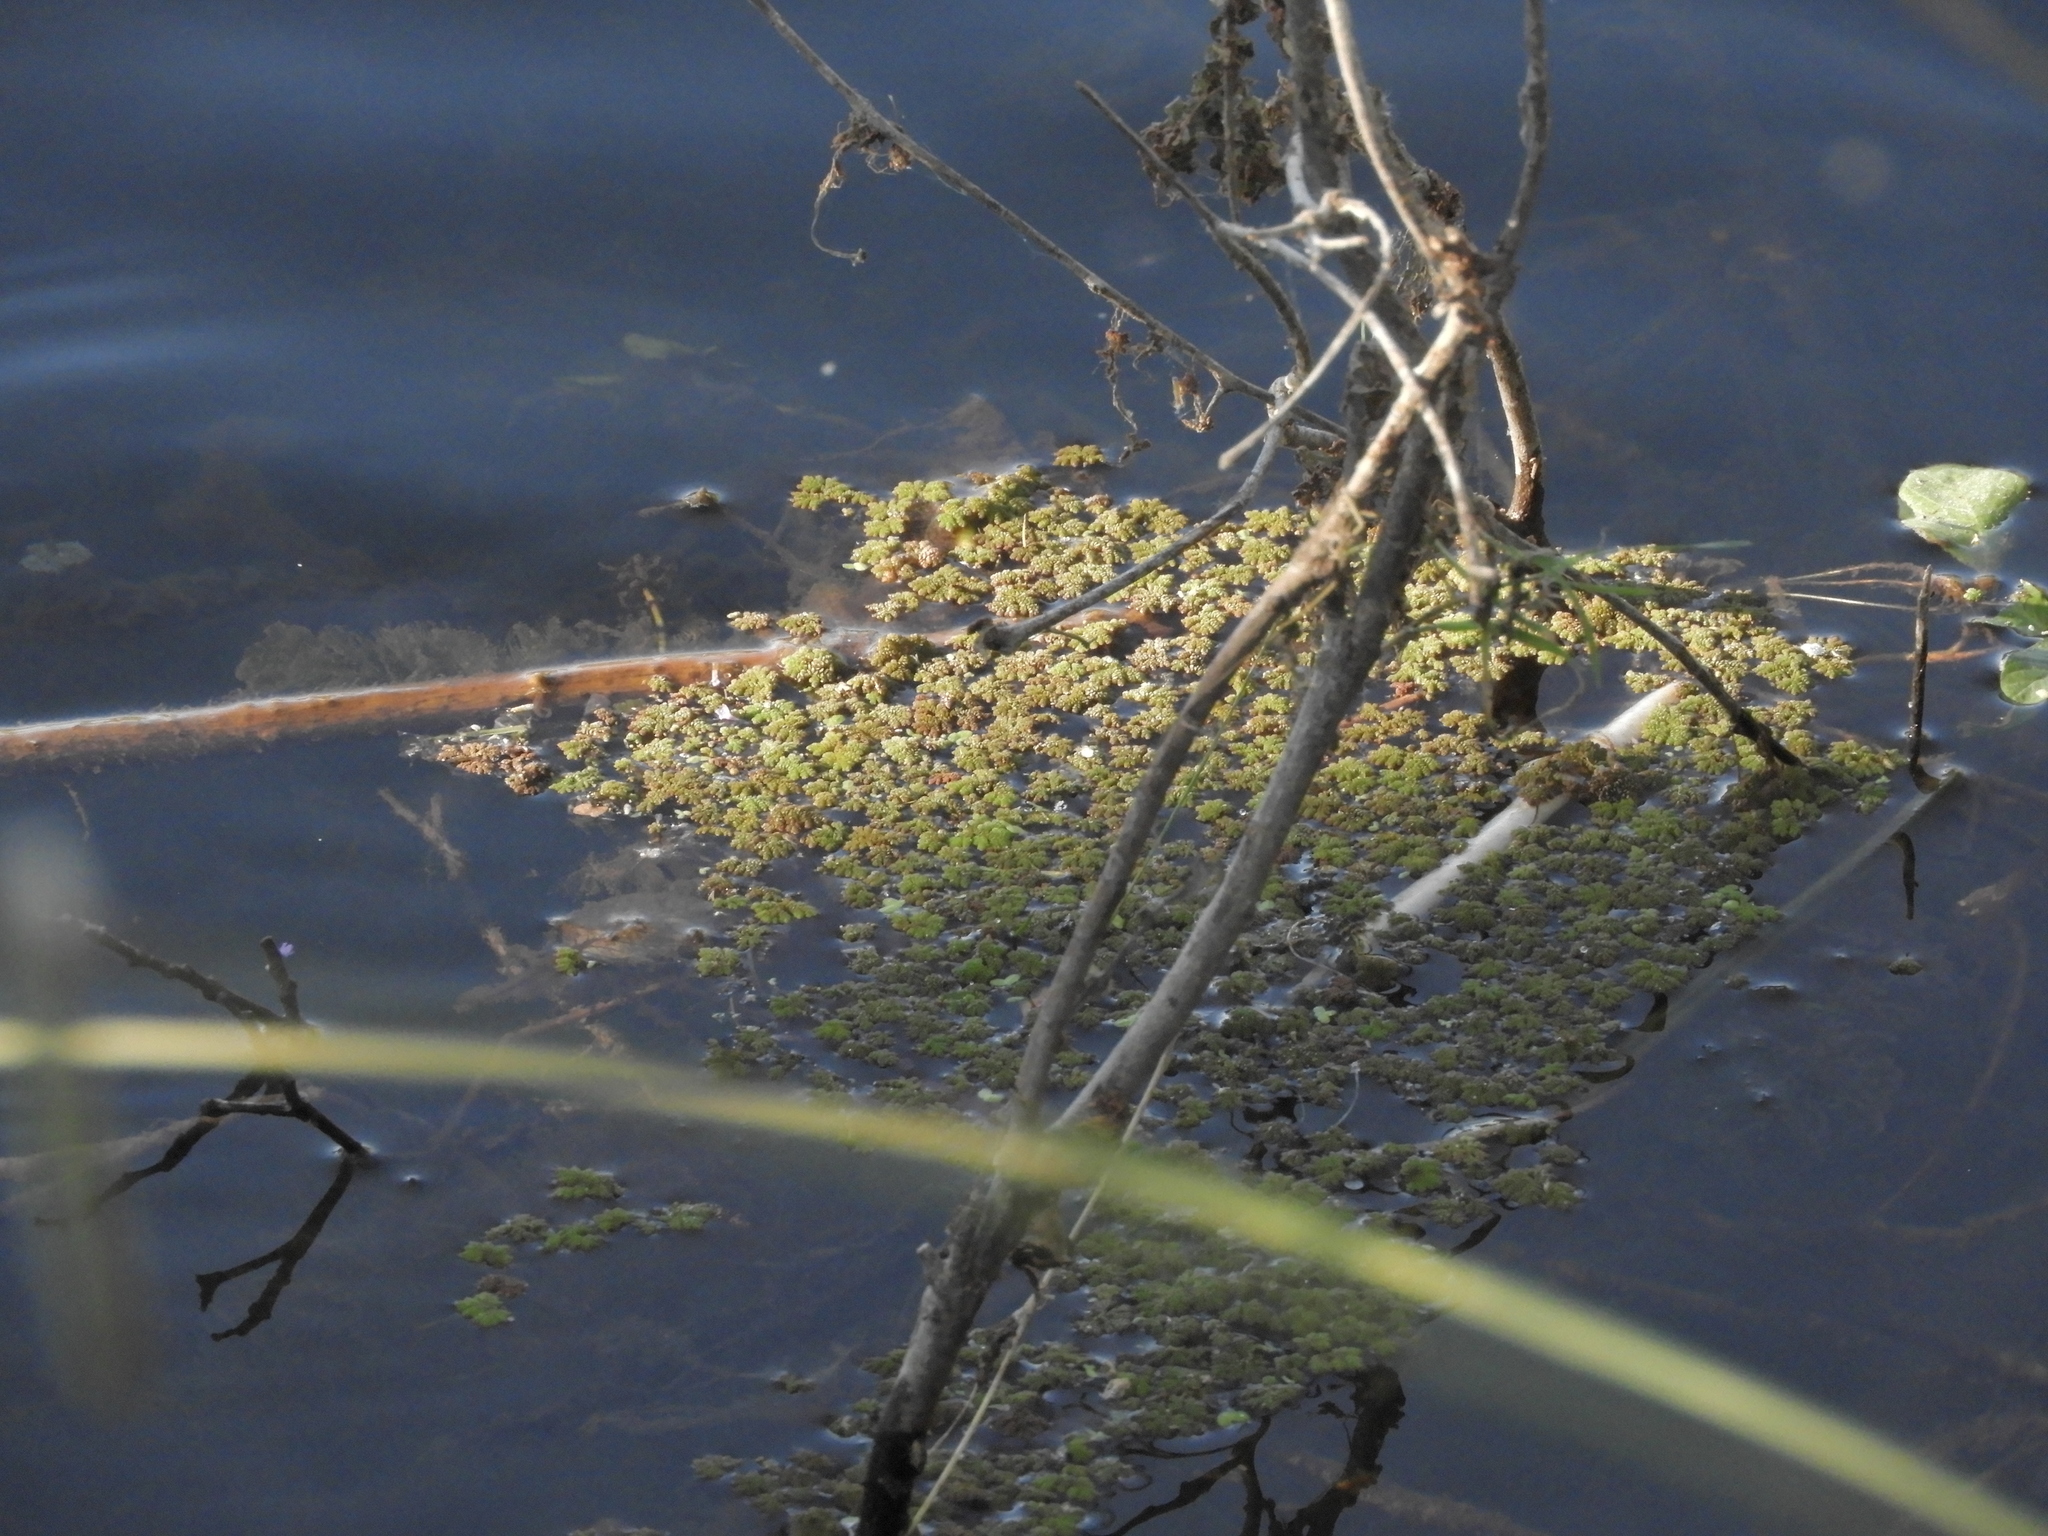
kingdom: Plantae
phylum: Tracheophyta
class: Polypodiopsida
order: Salviniales
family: Salviniaceae
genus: Azolla
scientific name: Azolla filiculoides
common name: Water fern
